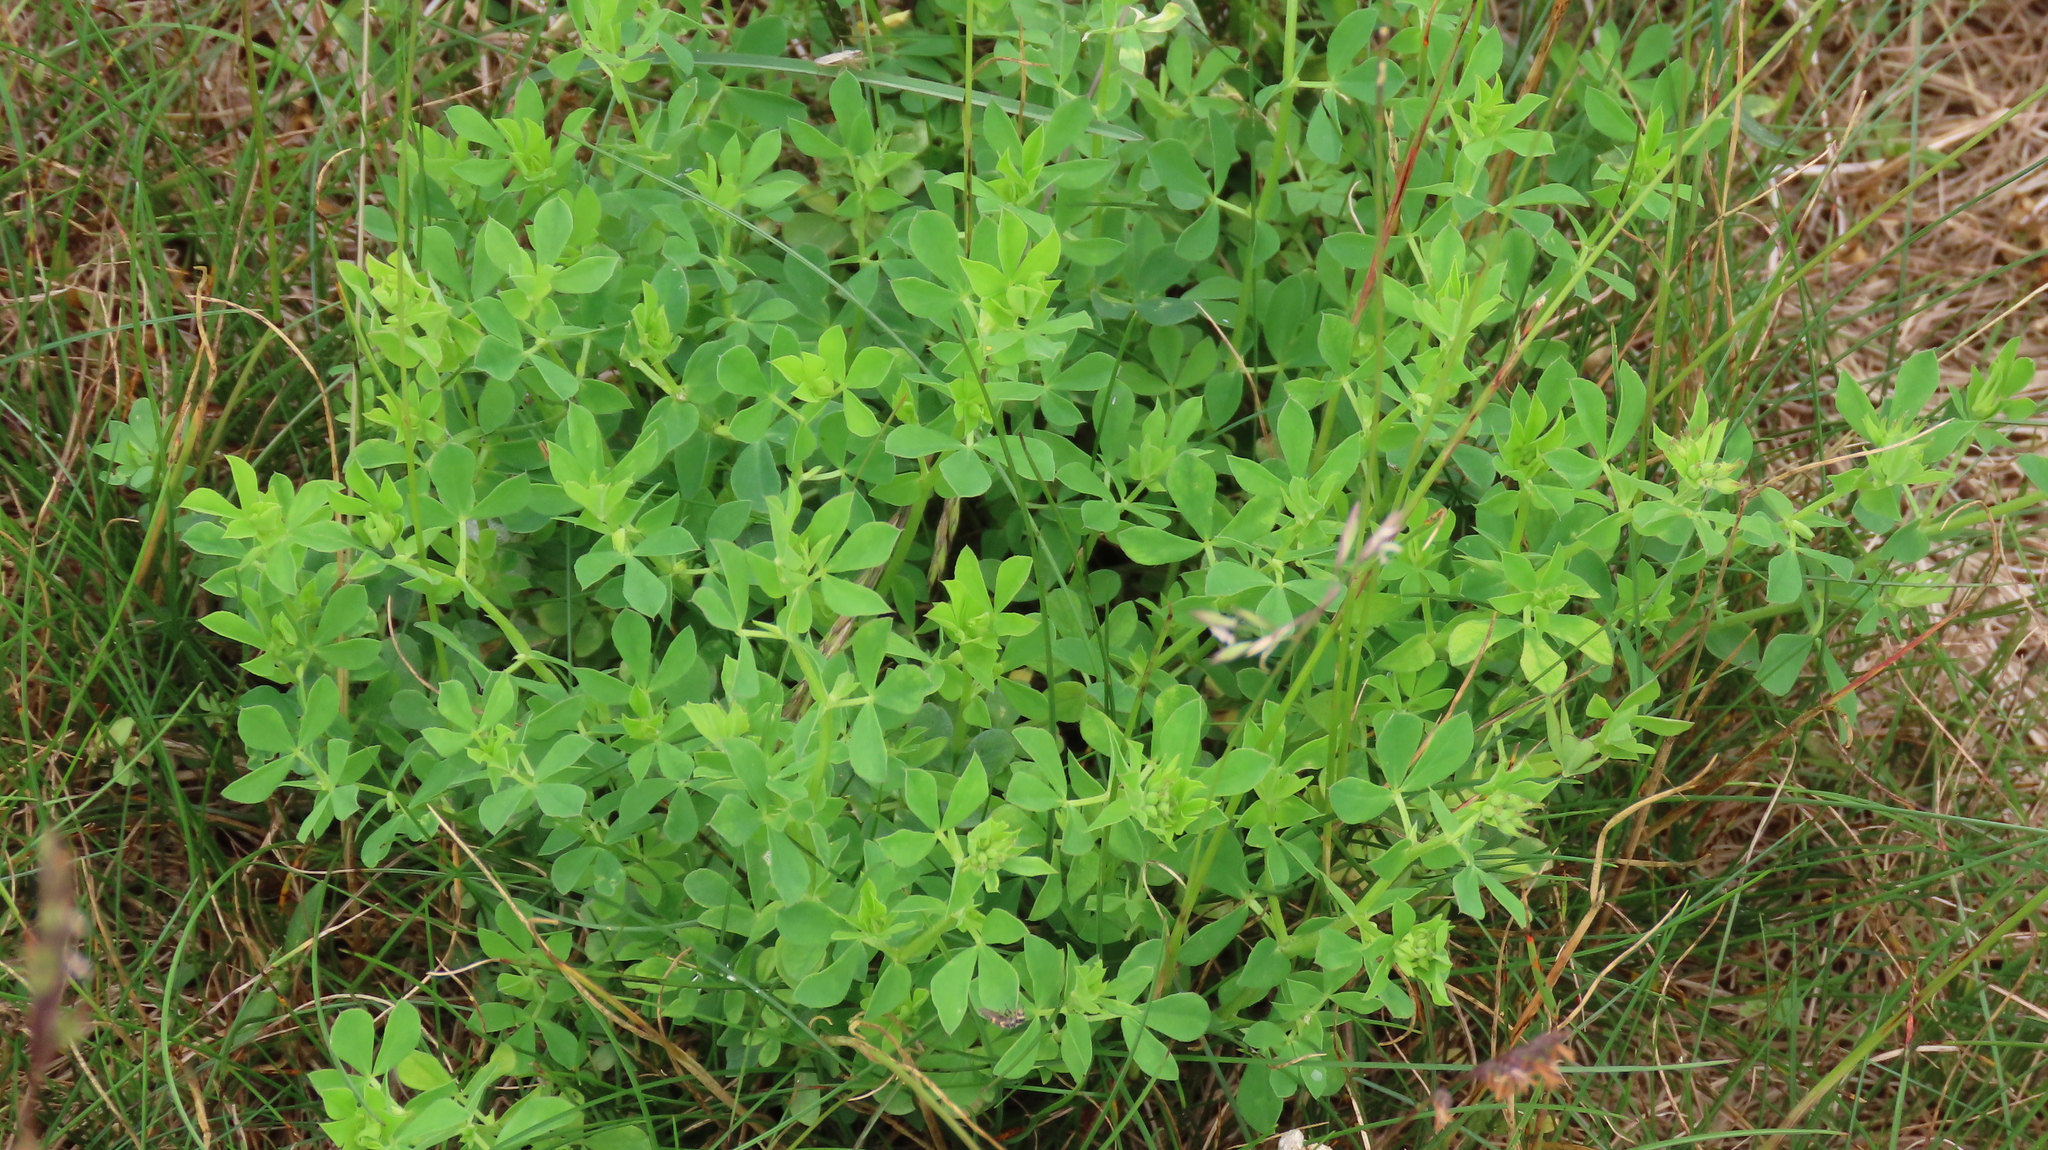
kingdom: Plantae
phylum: Tracheophyta
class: Magnoliopsida
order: Fabales
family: Fabaceae
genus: Lotus
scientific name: Lotus corniculatus
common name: Common bird's-foot-trefoil
